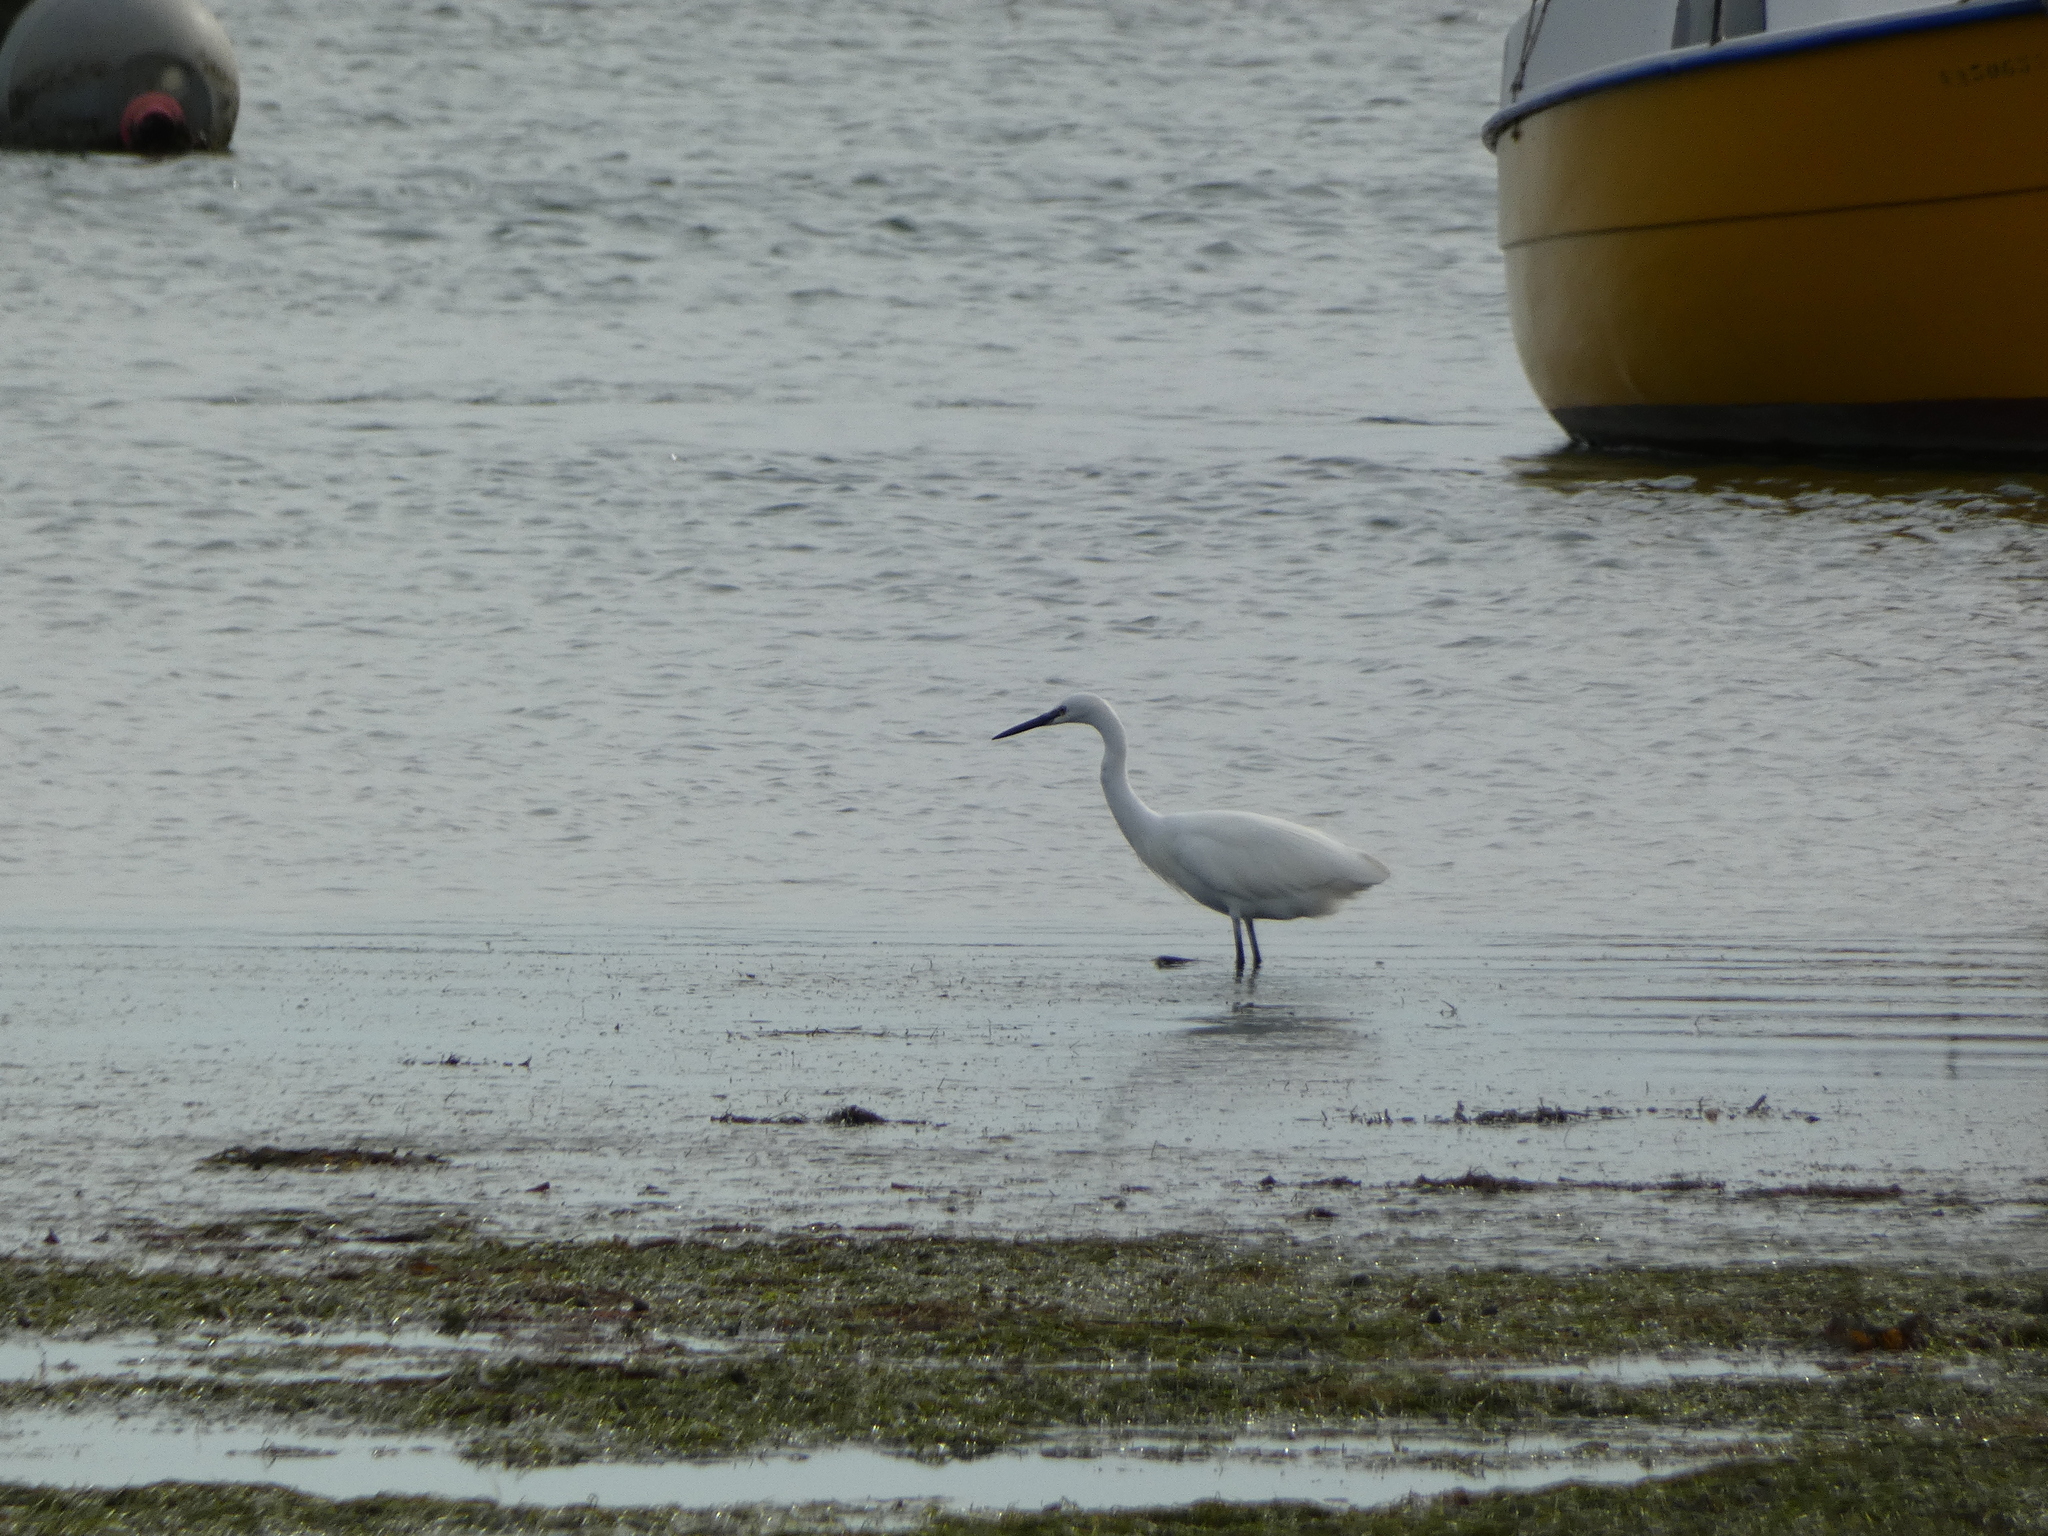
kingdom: Animalia
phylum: Chordata
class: Aves
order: Pelecaniformes
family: Ardeidae
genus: Egretta
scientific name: Egretta garzetta
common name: Little egret
